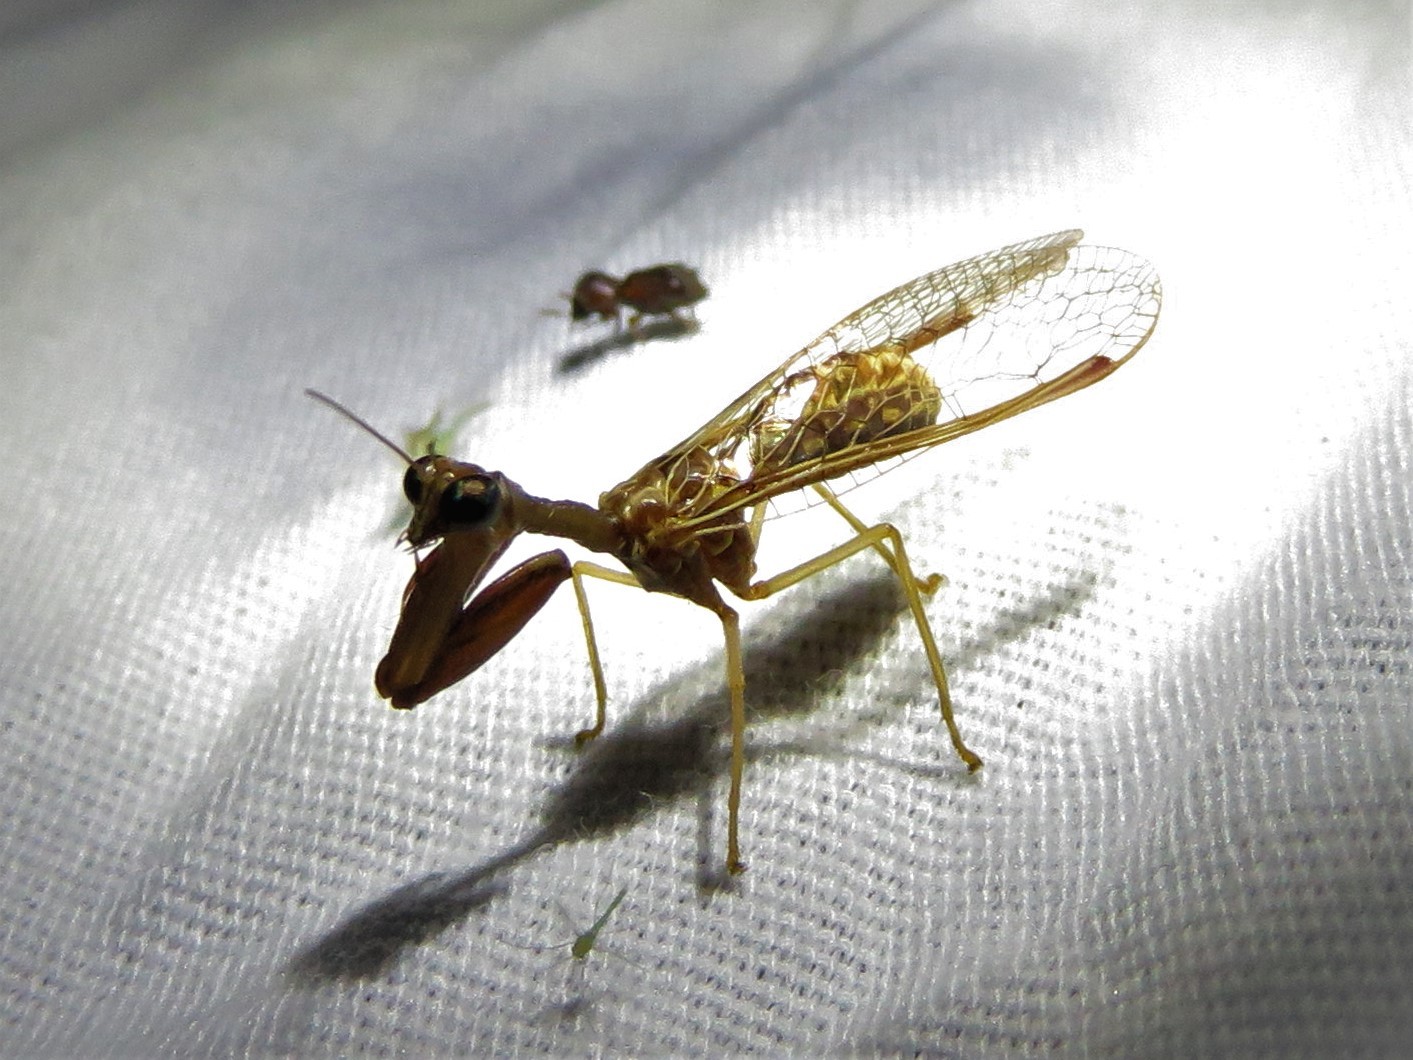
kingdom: Animalia
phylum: Arthropoda
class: Insecta
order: Neuroptera
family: Mantispidae
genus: Dicromantispa
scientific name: Dicromantispa sayi
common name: Say's mantidfly
